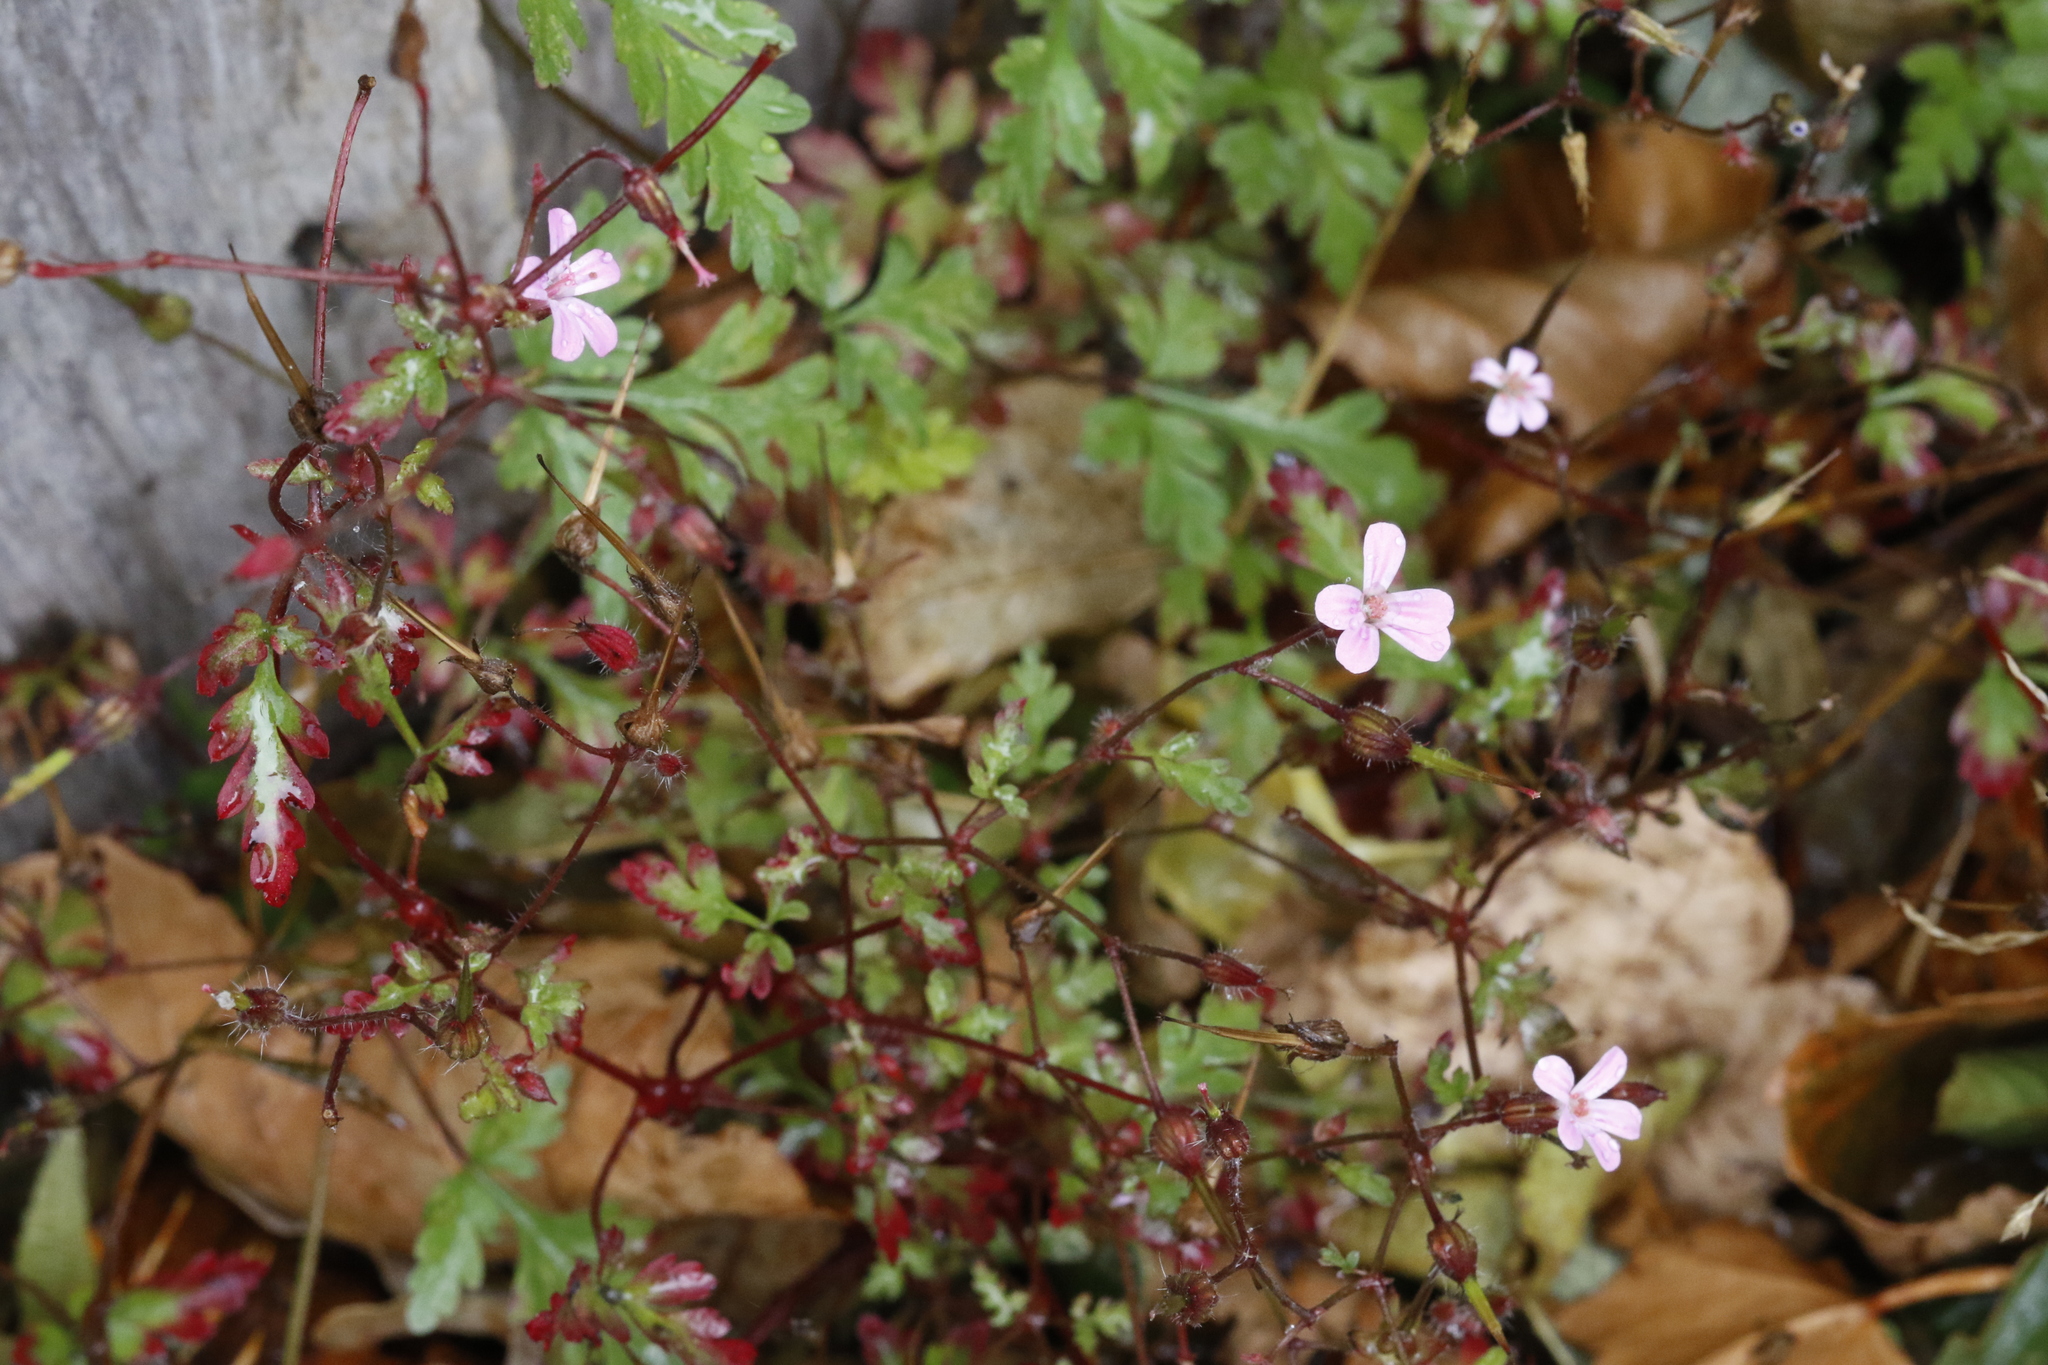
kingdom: Plantae
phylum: Tracheophyta
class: Magnoliopsida
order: Geraniales
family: Geraniaceae
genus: Geranium
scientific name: Geranium robertianum
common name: Herb-robert
